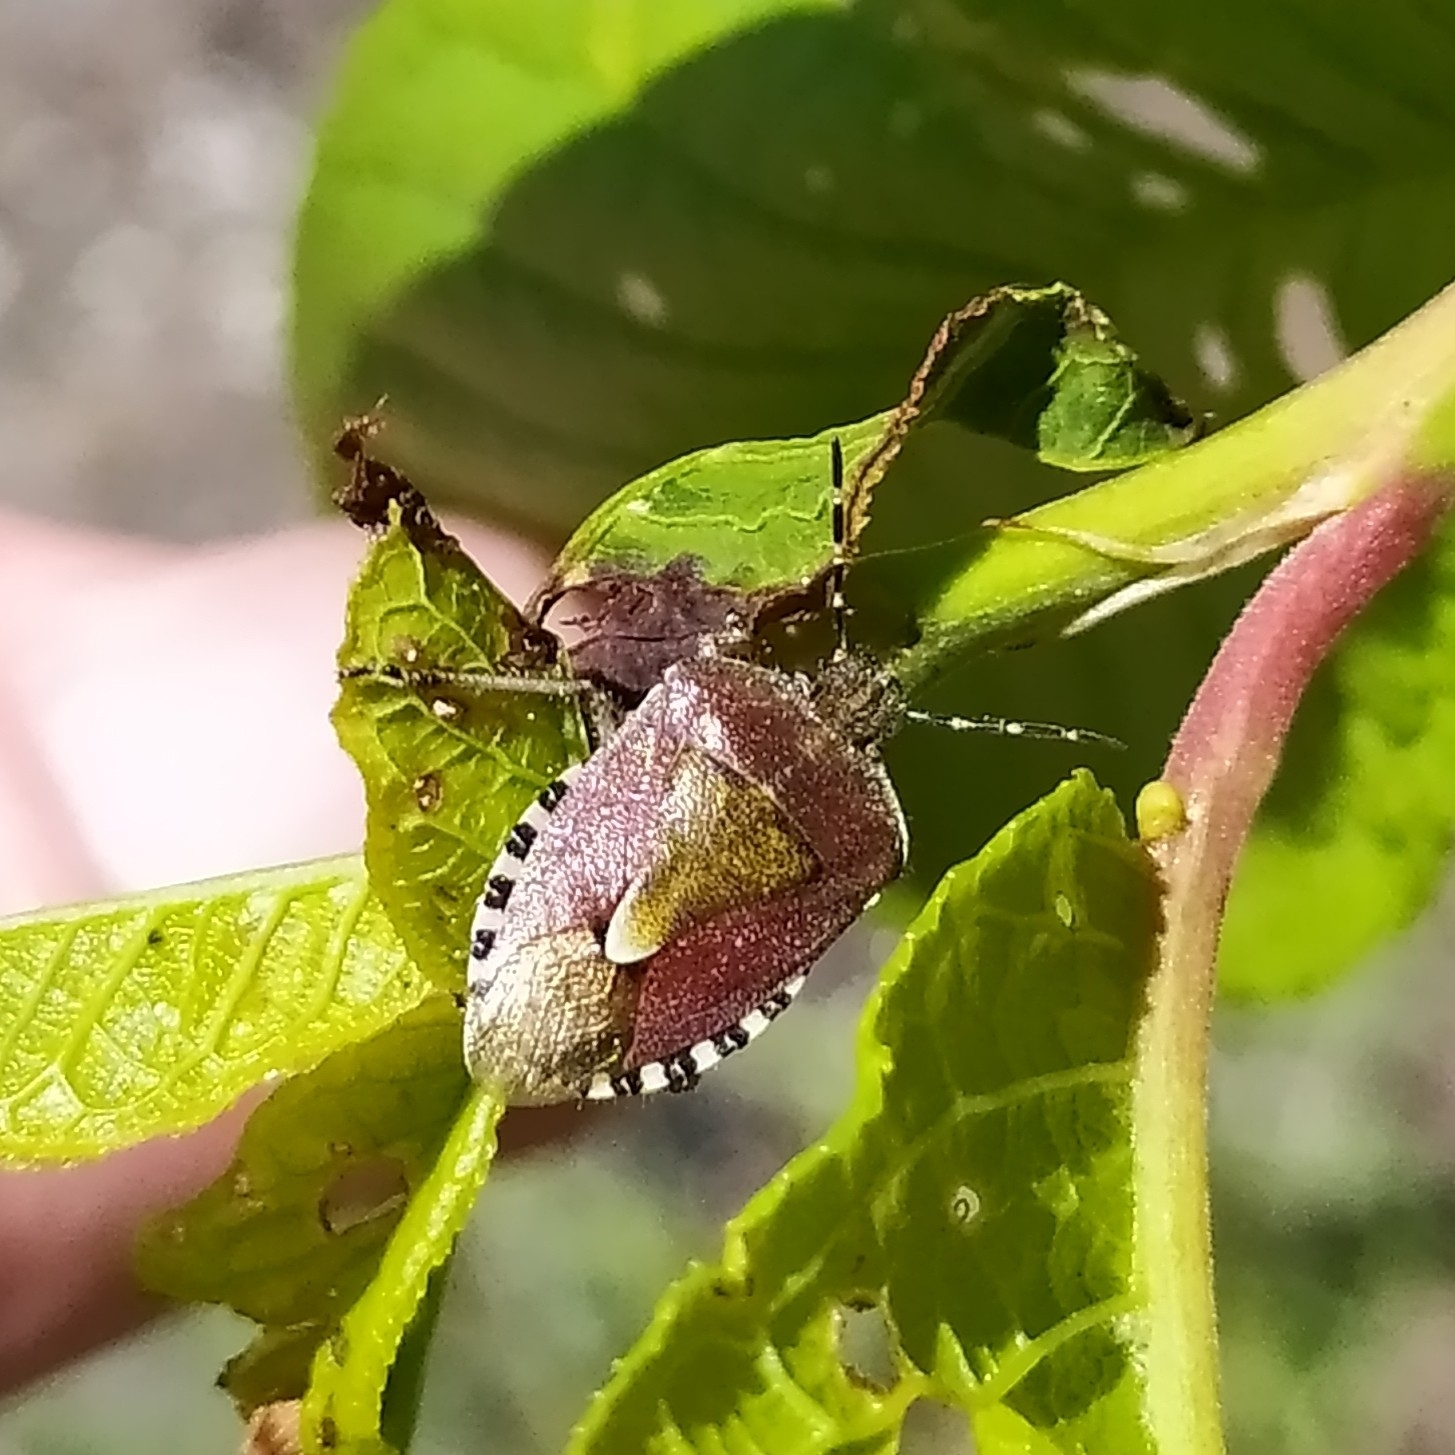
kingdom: Animalia
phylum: Arthropoda
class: Insecta
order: Hemiptera
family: Pentatomidae
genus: Dolycoris
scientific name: Dolycoris baccarum
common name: Sloe bug
